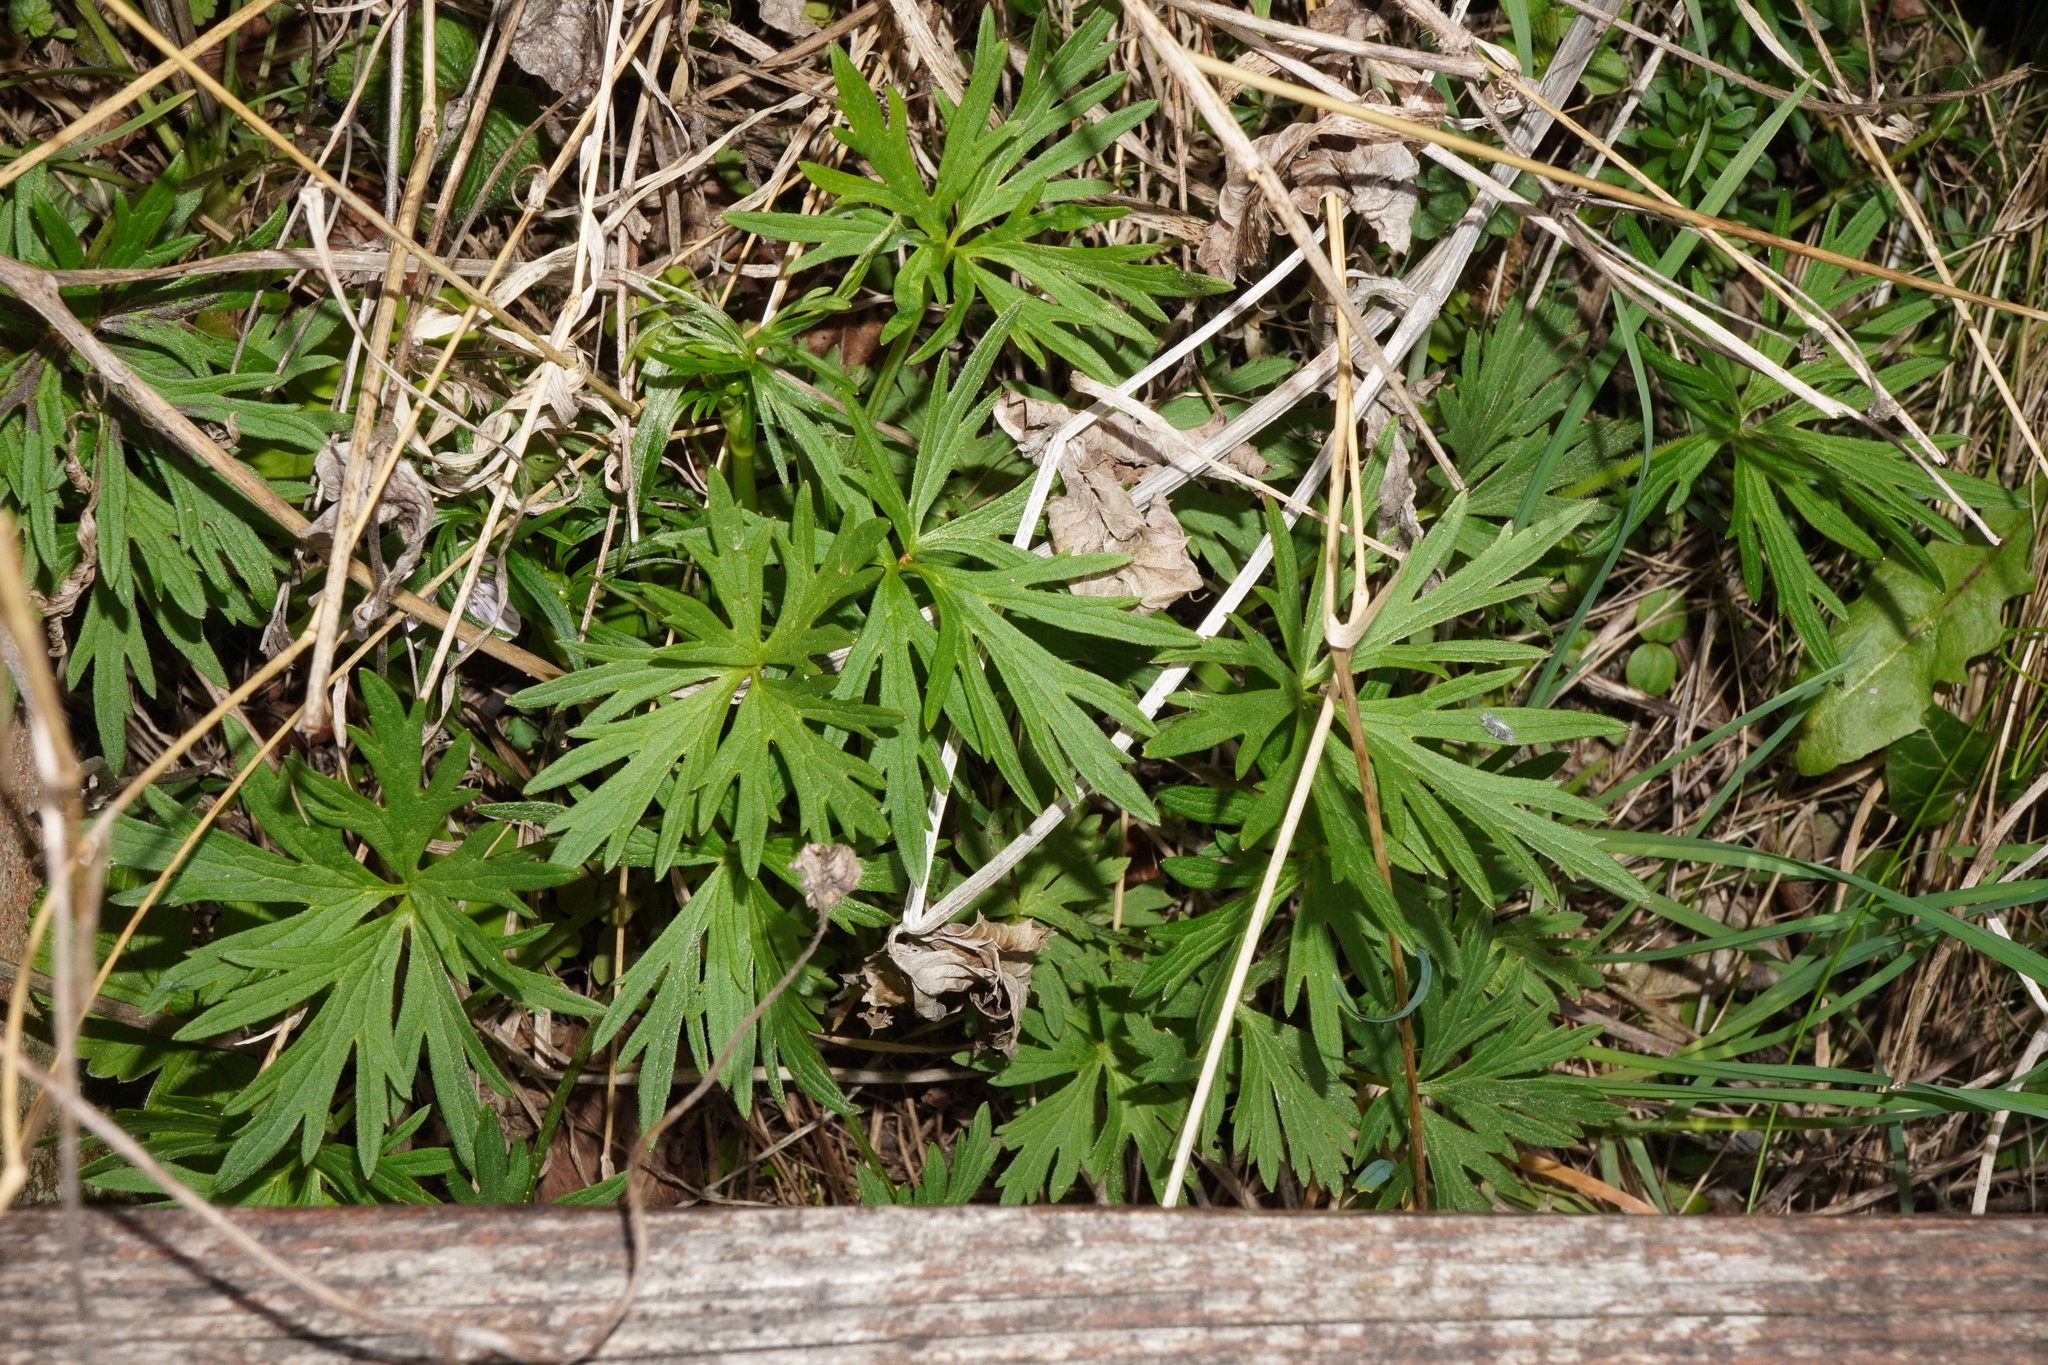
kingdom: Plantae
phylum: Tracheophyta
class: Magnoliopsida
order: Ranunculales
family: Ranunculaceae
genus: Ranunculus
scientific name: Ranunculus acris
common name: Meadow buttercup
